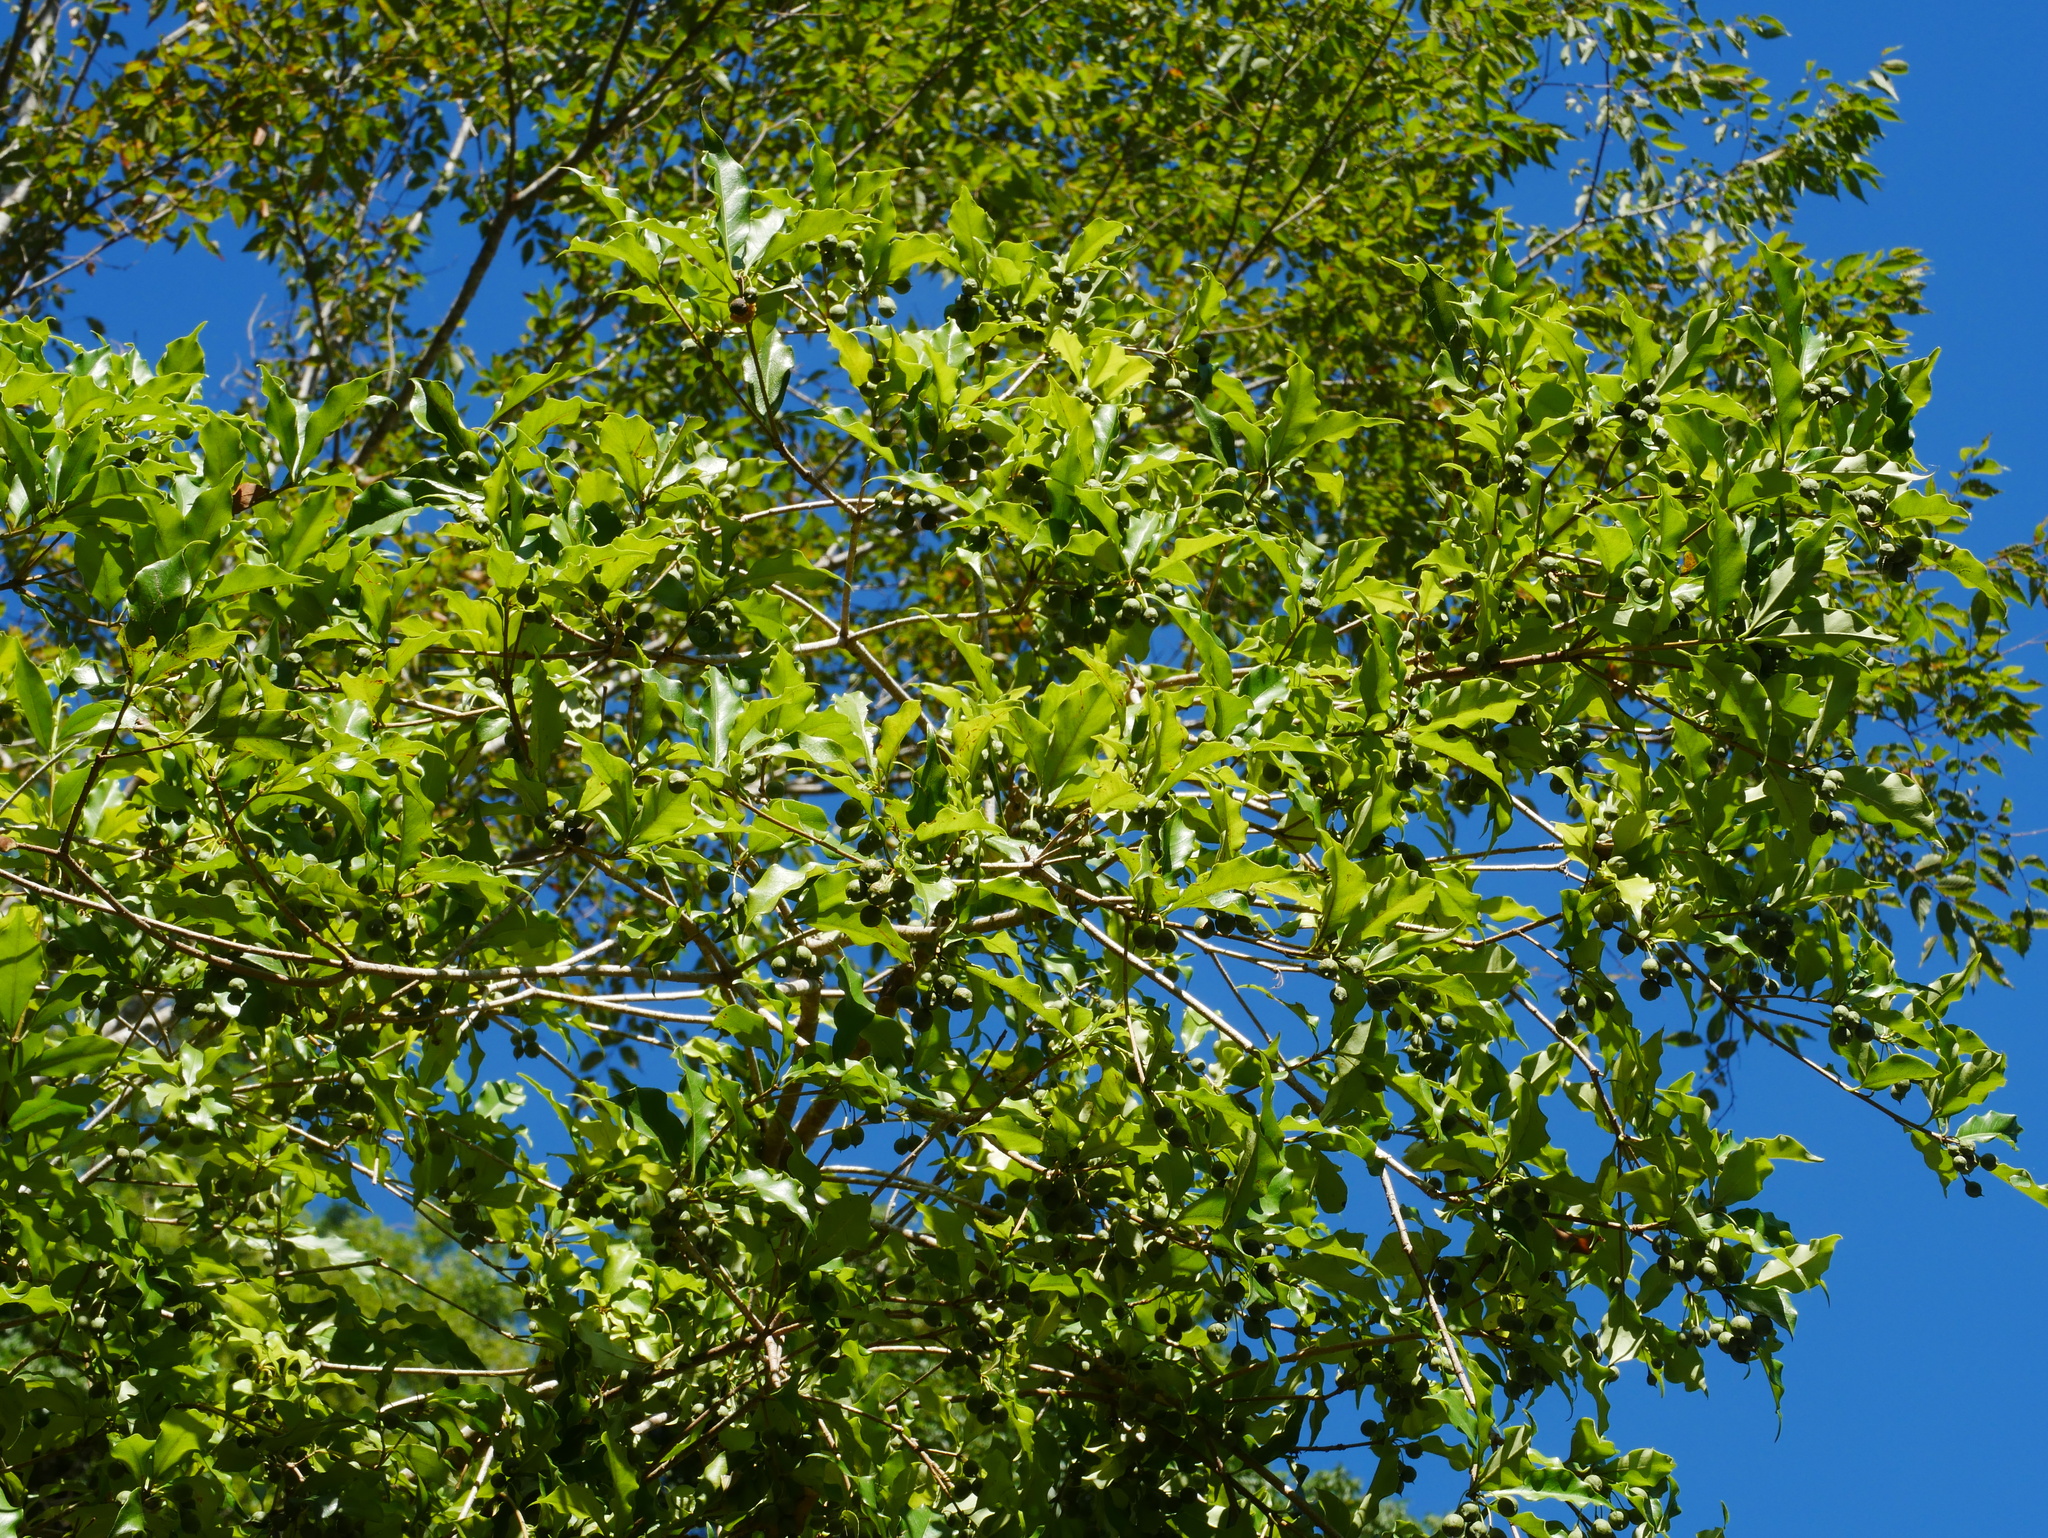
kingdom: Plantae
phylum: Tracheophyta
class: Magnoliopsida
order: Apiales
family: Pittosporaceae
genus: Pittosporum
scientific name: Pittosporum illicioides
